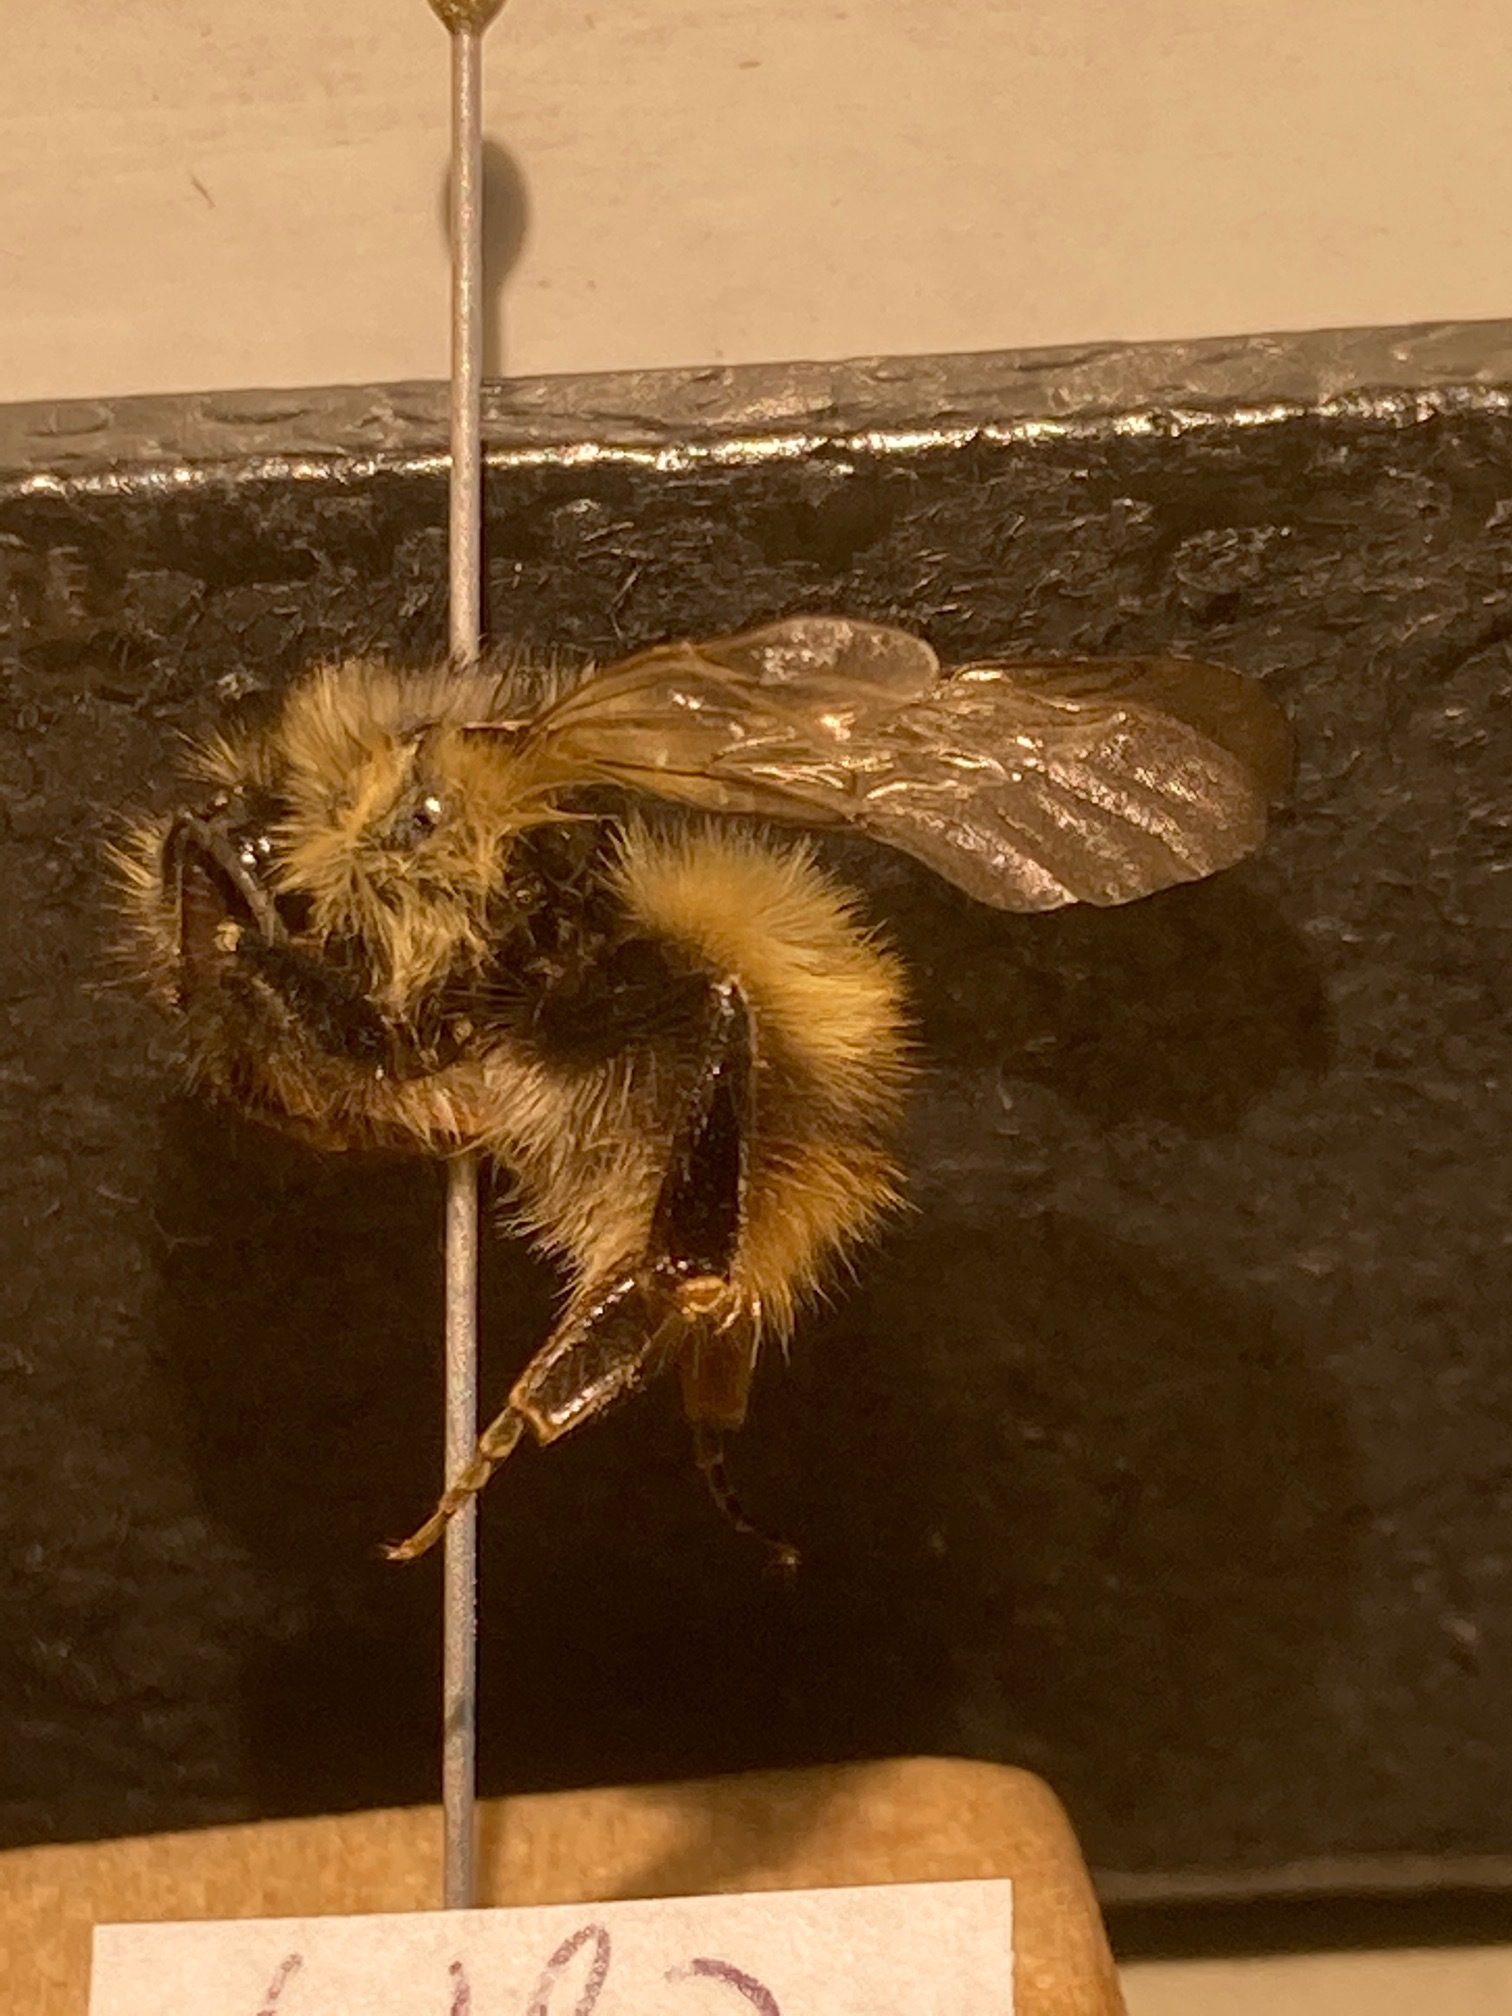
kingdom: Animalia
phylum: Arthropoda
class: Insecta
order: Hymenoptera
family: Apidae
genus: Bombus
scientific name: Bombus mixtus
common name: Fuzzy-horned bumble bee
